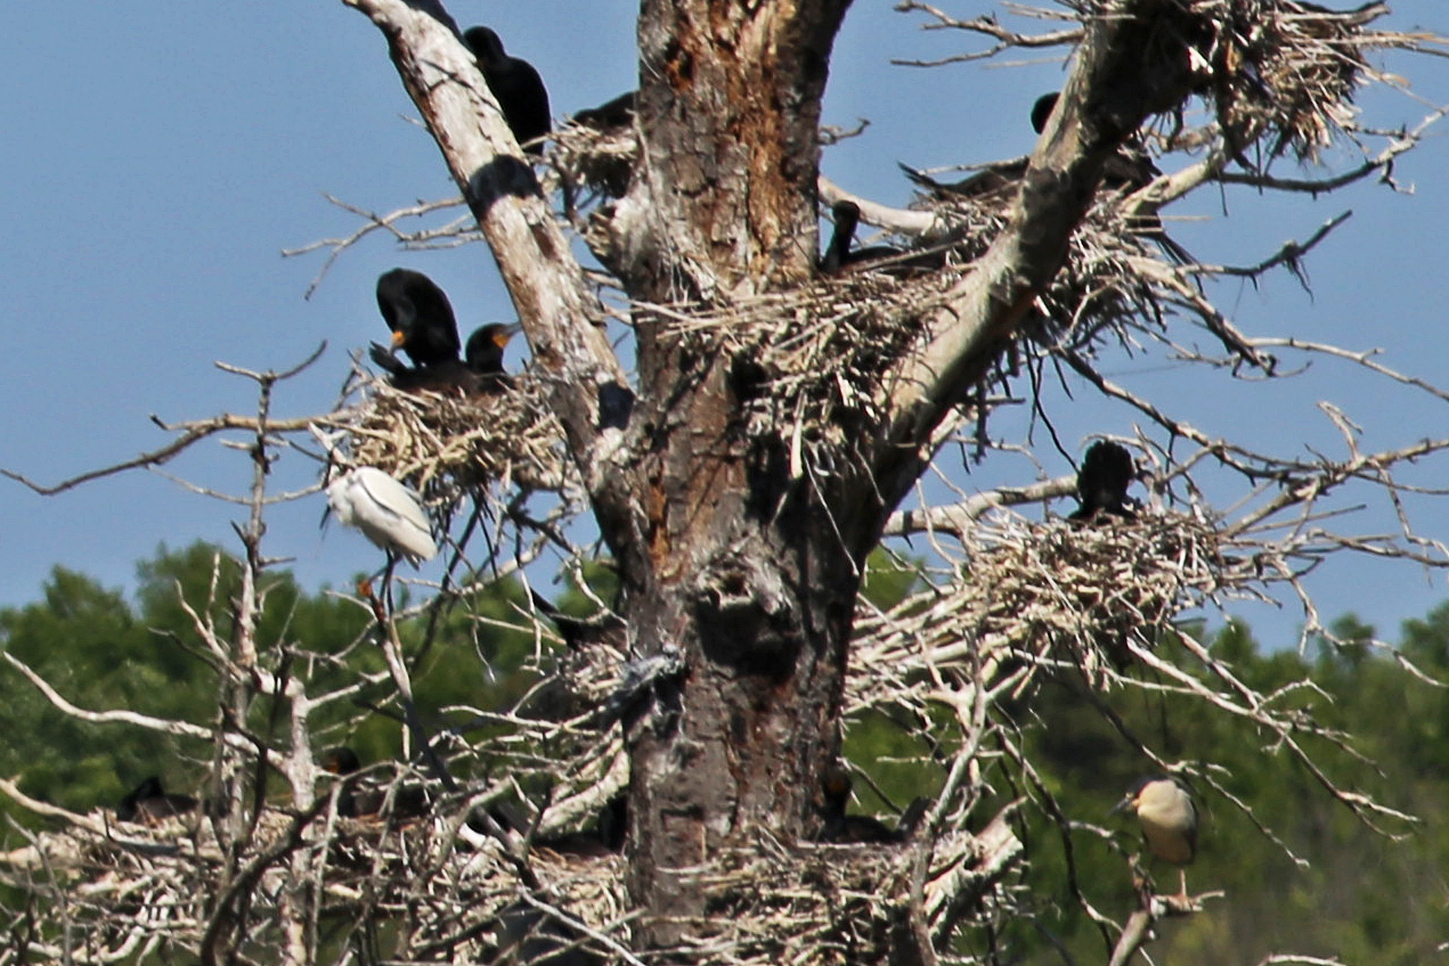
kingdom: Animalia
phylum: Chordata
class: Aves
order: Pelecaniformes
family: Ardeidae
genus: Egretta
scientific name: Egretta thula
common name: Snowy egret
